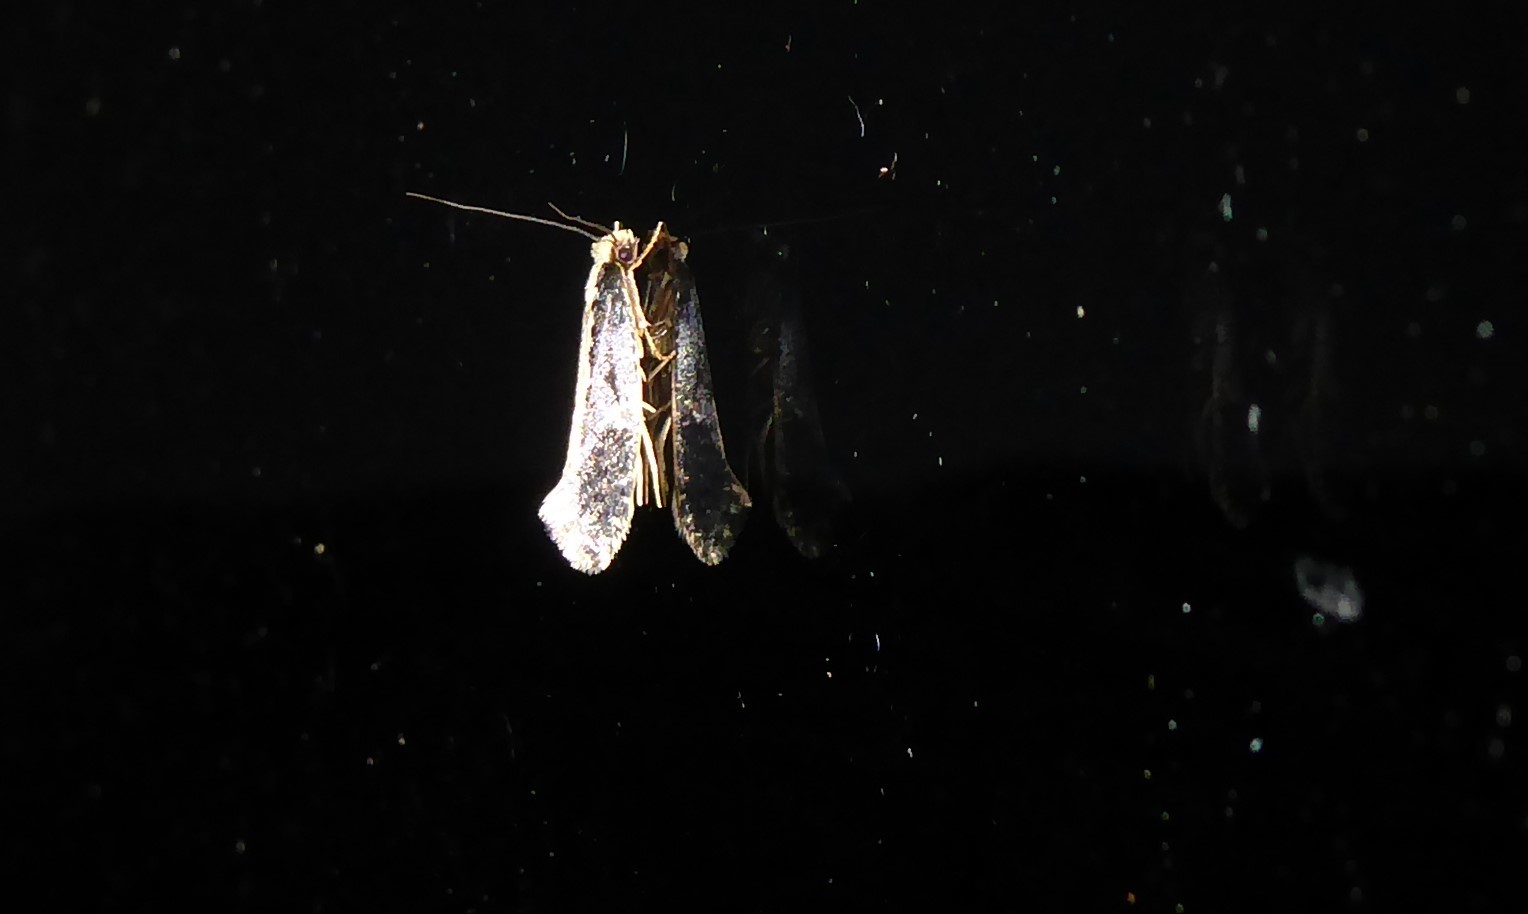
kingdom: Animalia
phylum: Arthropoda
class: Insecta
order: Lepidoptera
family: Tineidae
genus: Monopis
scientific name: Monopis ethelella
